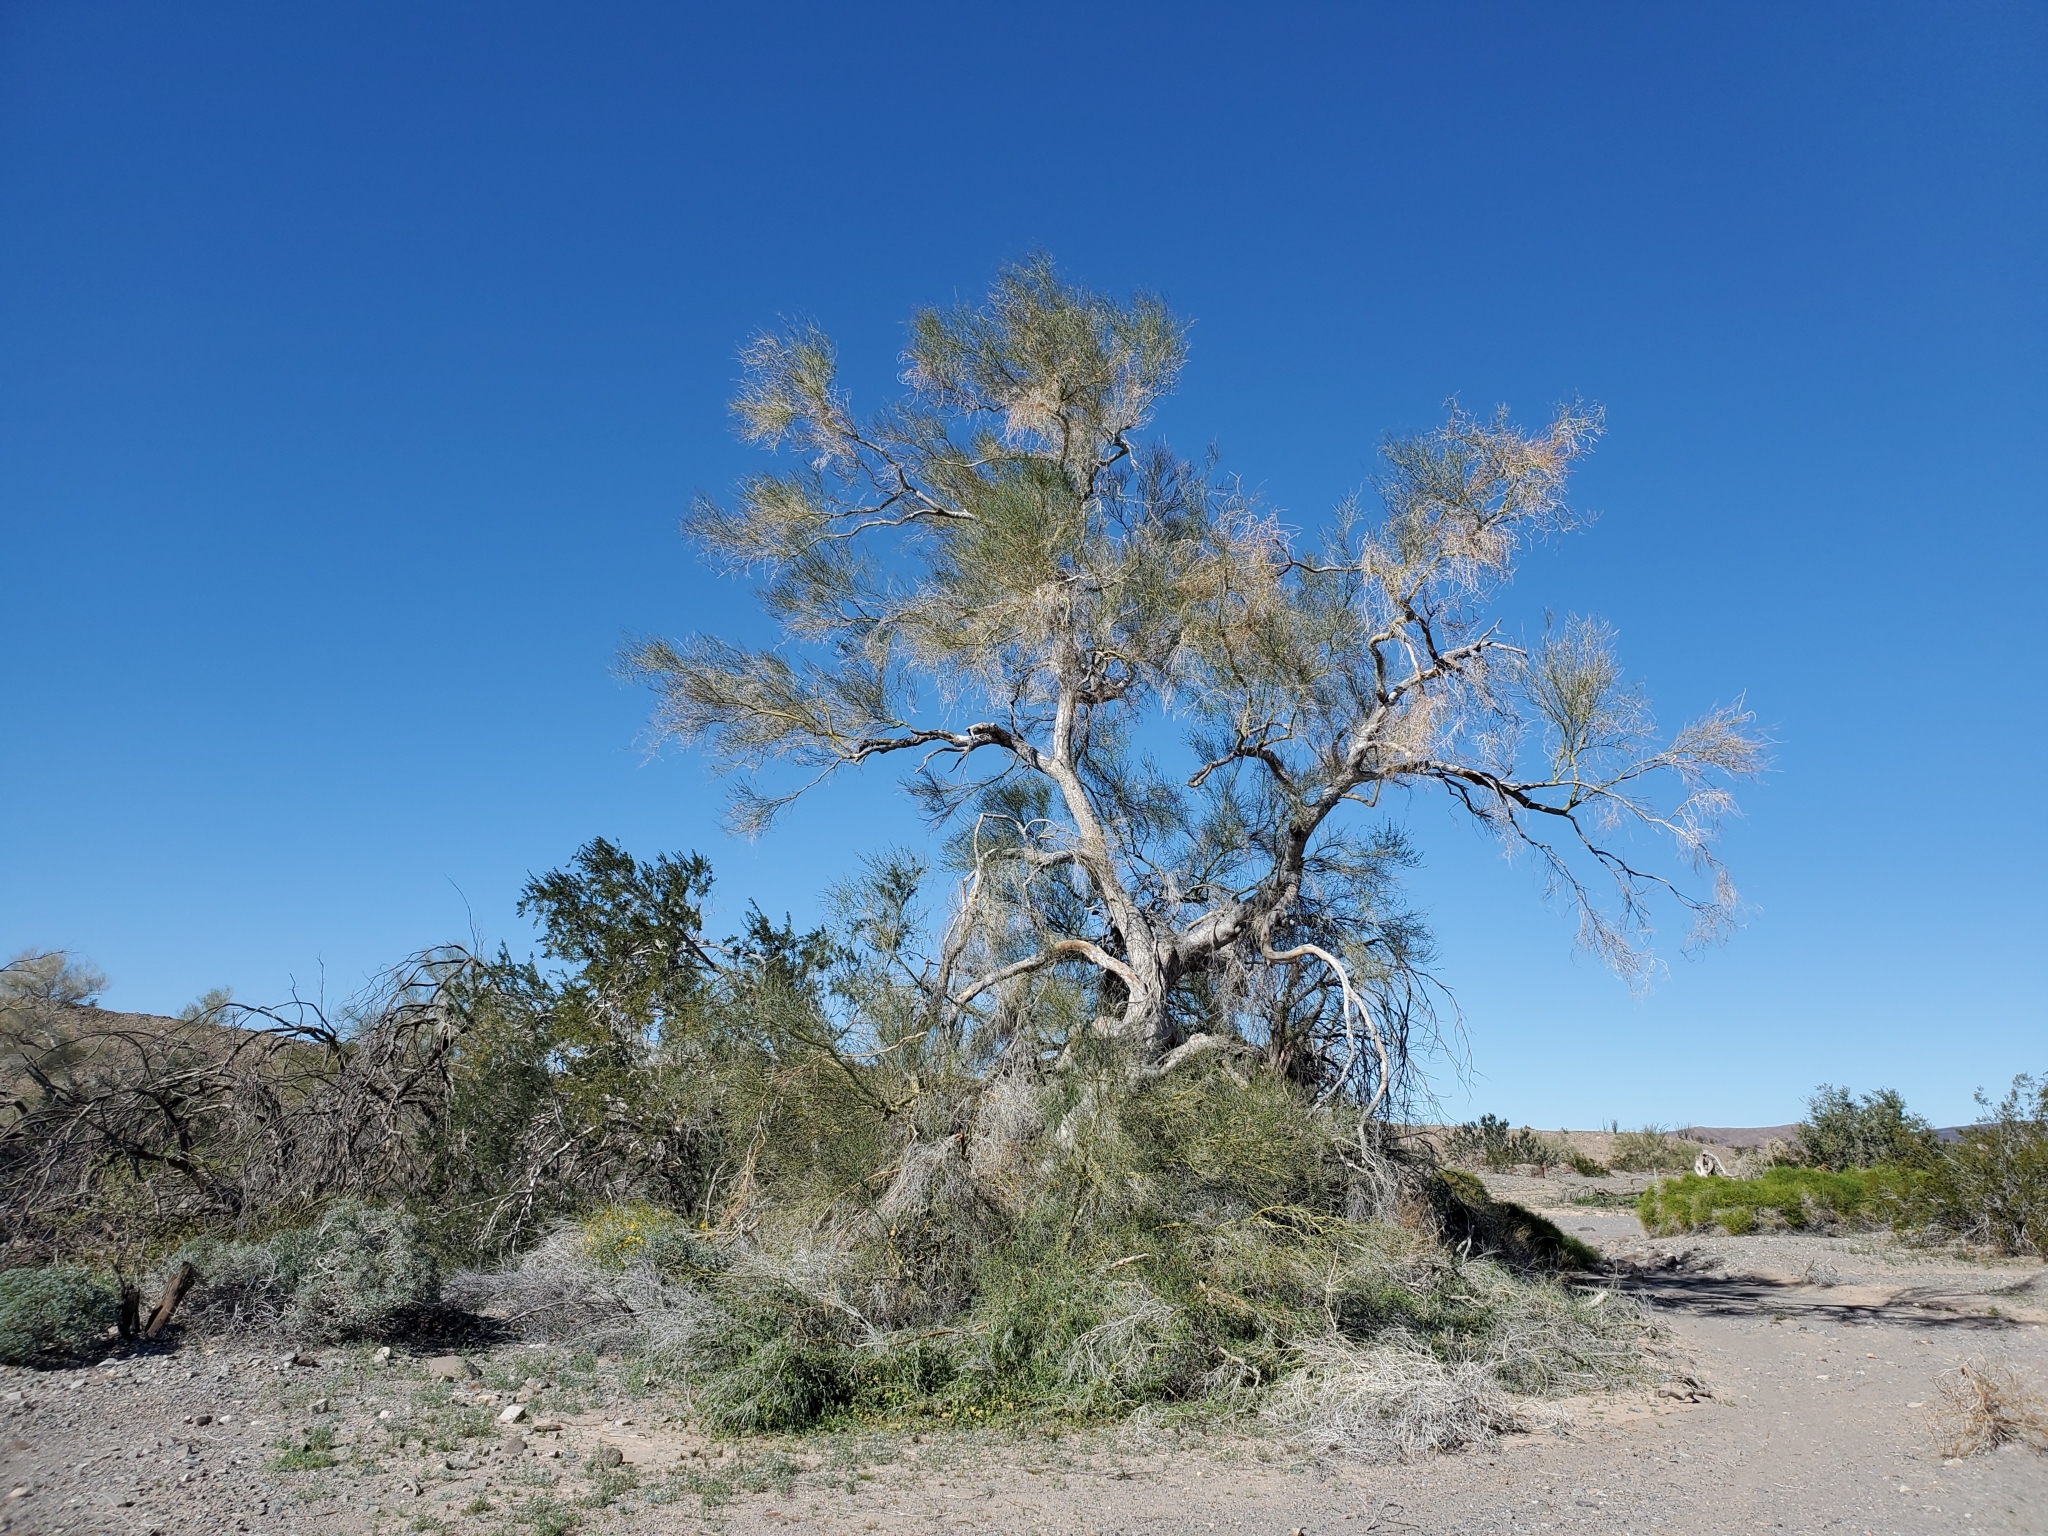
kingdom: Plantae
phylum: Tracheophyta
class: Magnoliopsida
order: Fabales
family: Fabaceae
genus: Parkinsonia
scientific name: Parkinsonia florida
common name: Blue paloverde
